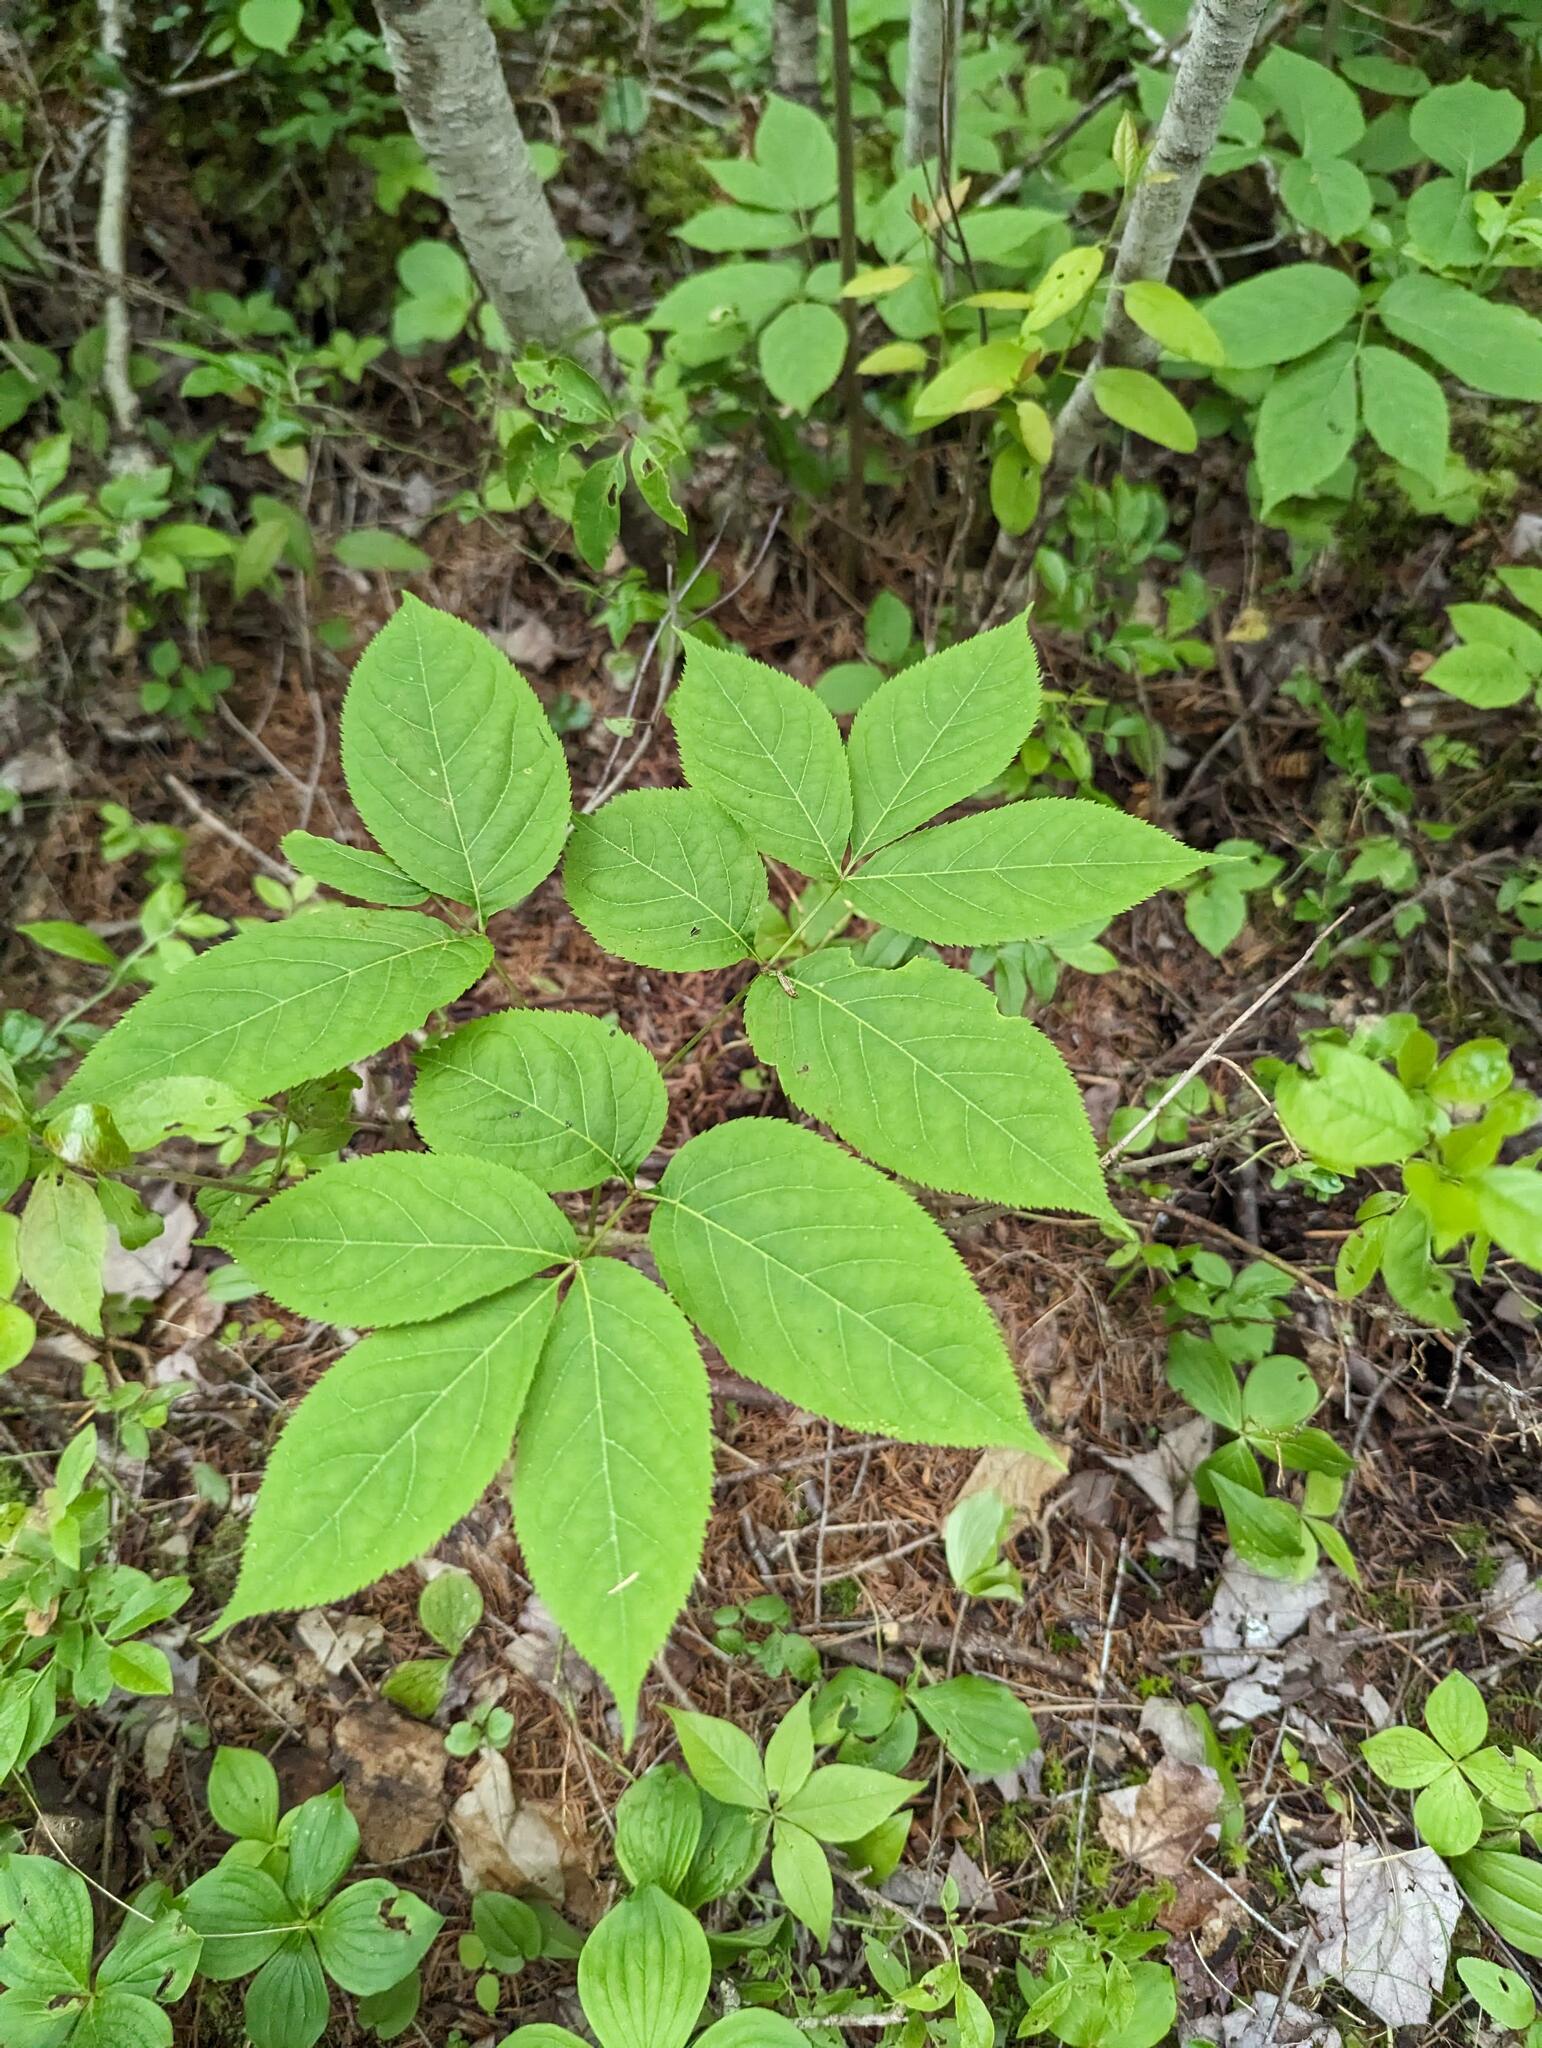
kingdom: Plantae
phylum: Tracheophyta
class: Magnoliopsida
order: Apiales
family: Araliaceae
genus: Aralia
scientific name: Aralia nudicaulis
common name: Wild sarsaparilla
